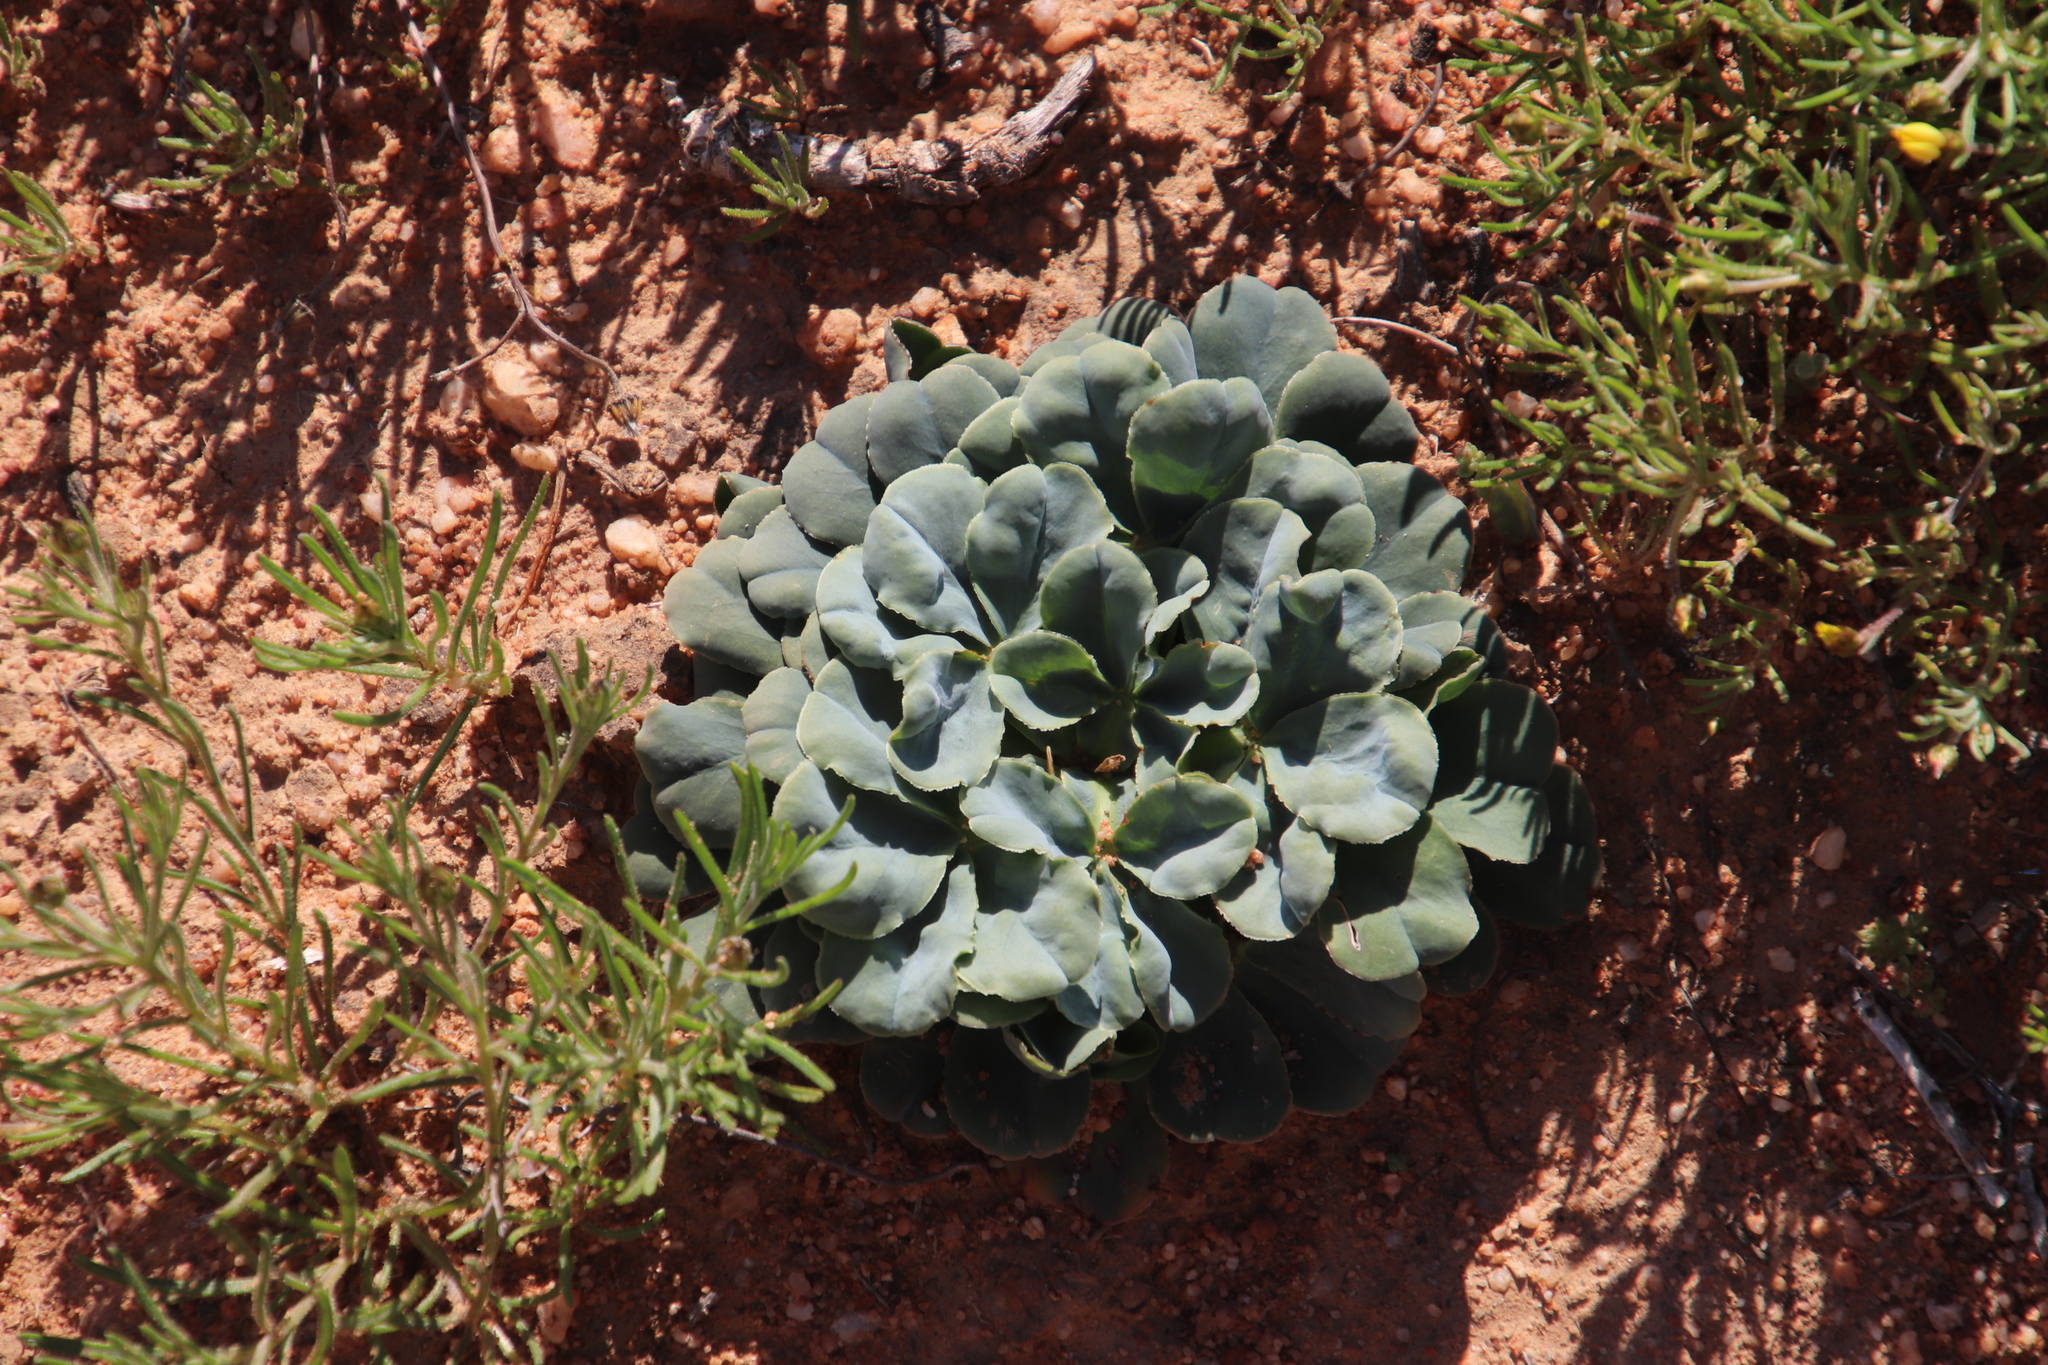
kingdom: Plantae
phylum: Tracheophyta
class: Magnoliopsida
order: Oxalidales
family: Oxalidaceae
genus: Oxalis
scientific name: Oxalis flava
